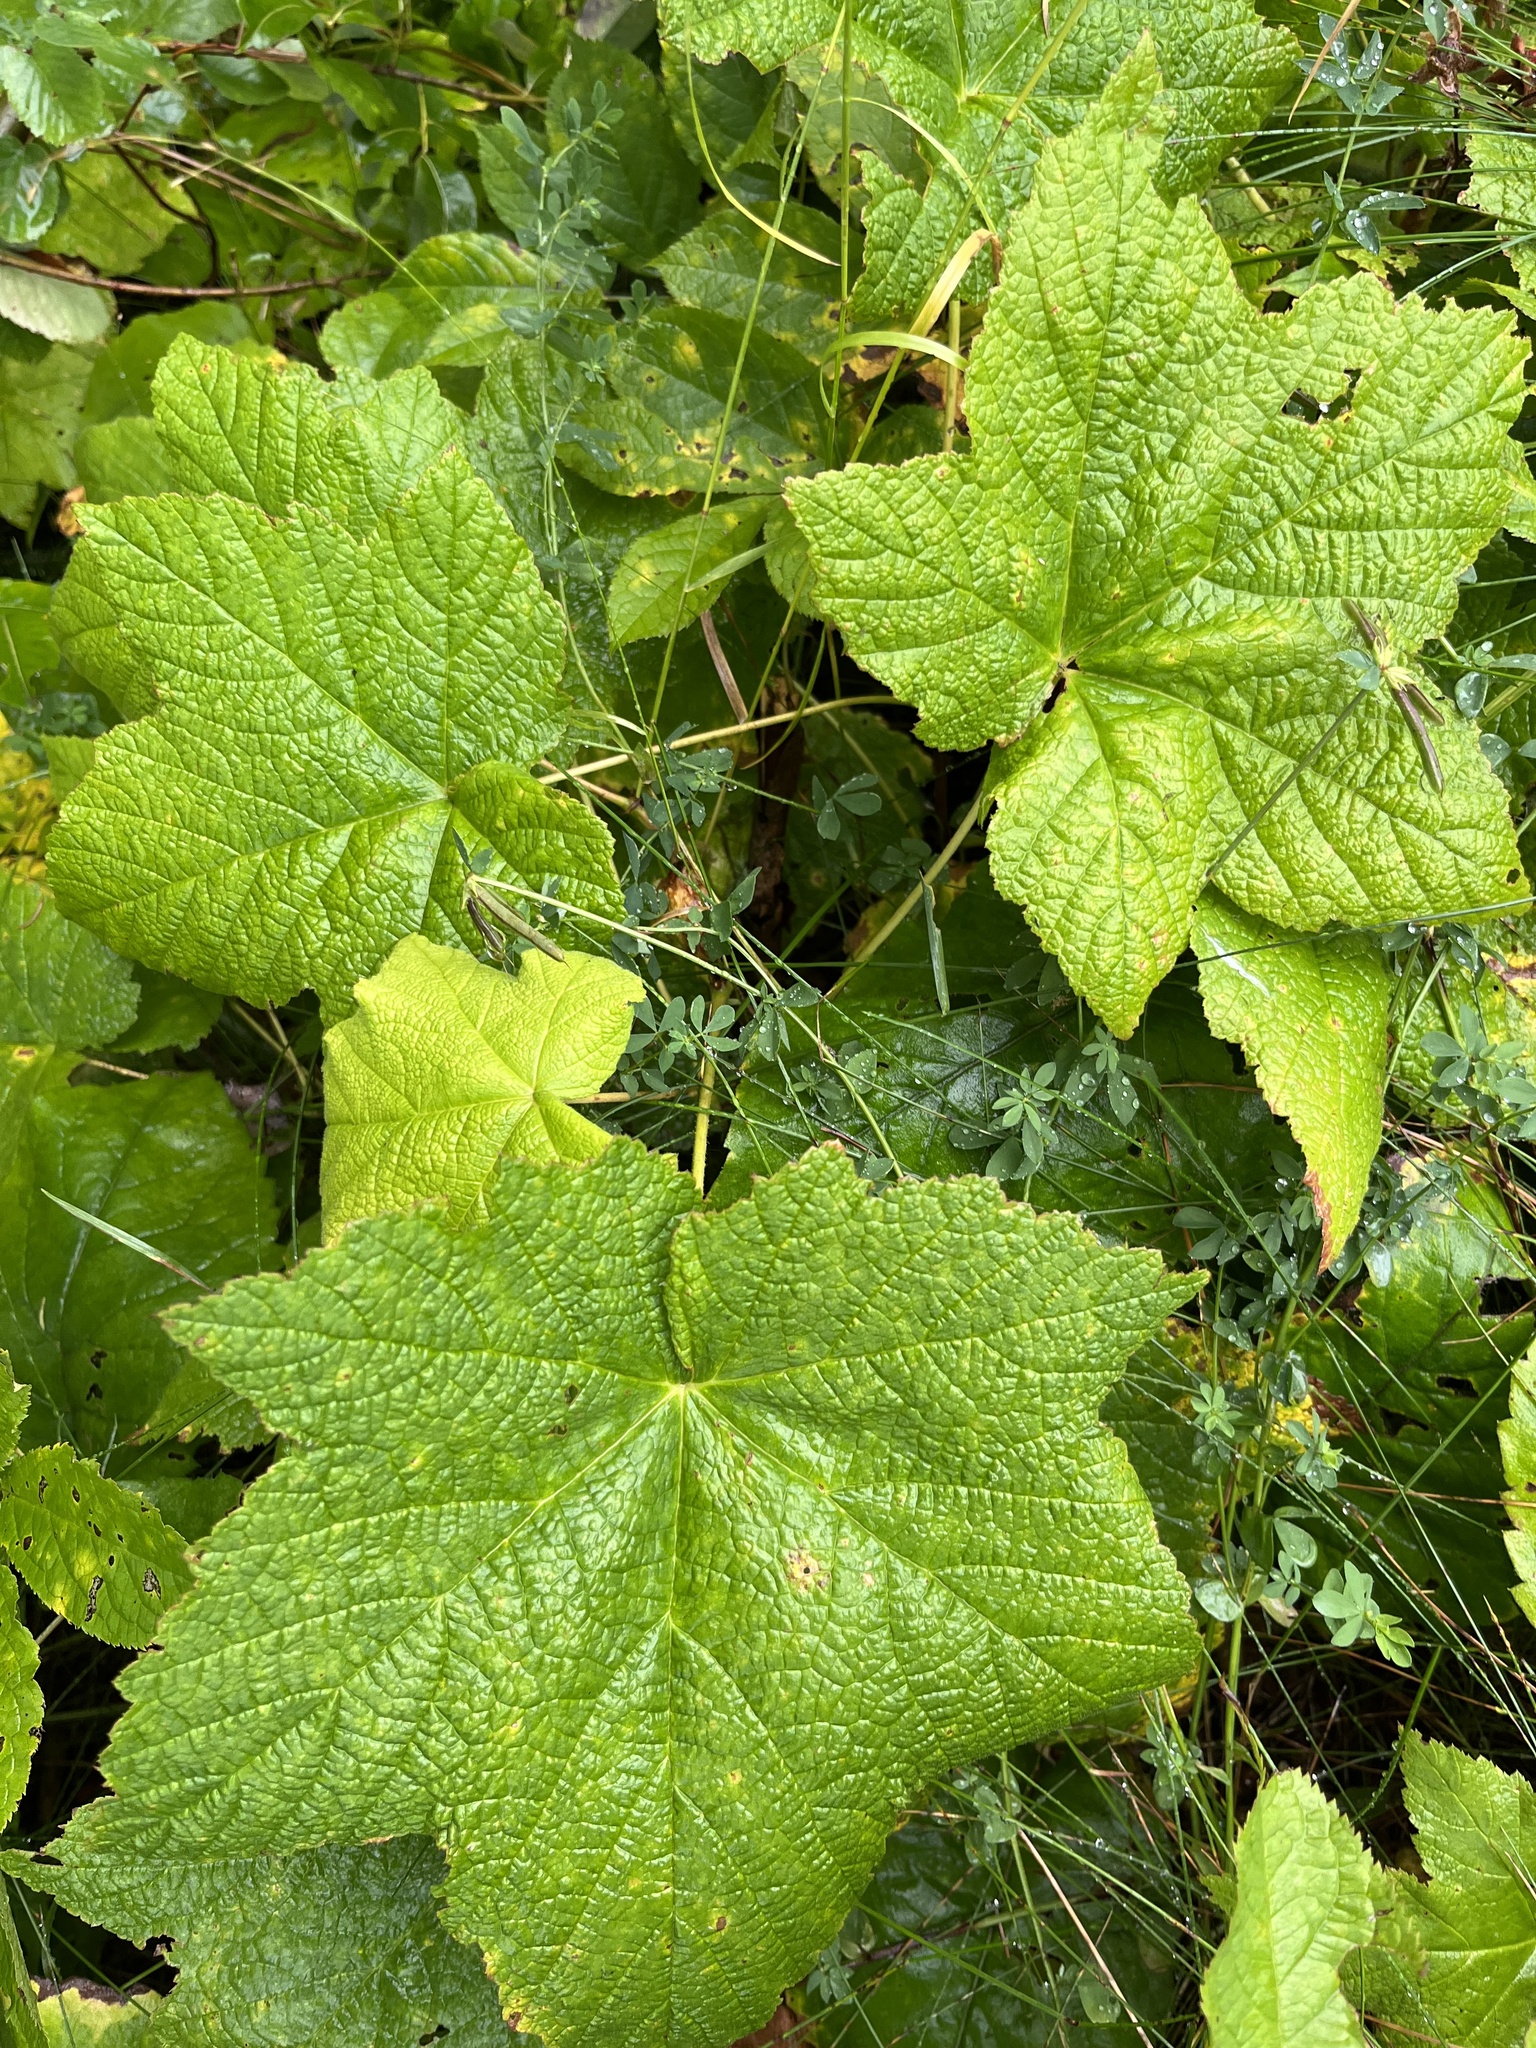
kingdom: Plantae
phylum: Tracheophyta
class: Magnoliopsida
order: Rosales
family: Rosaceae
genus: Rubus
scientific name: Rubus parviflorus
